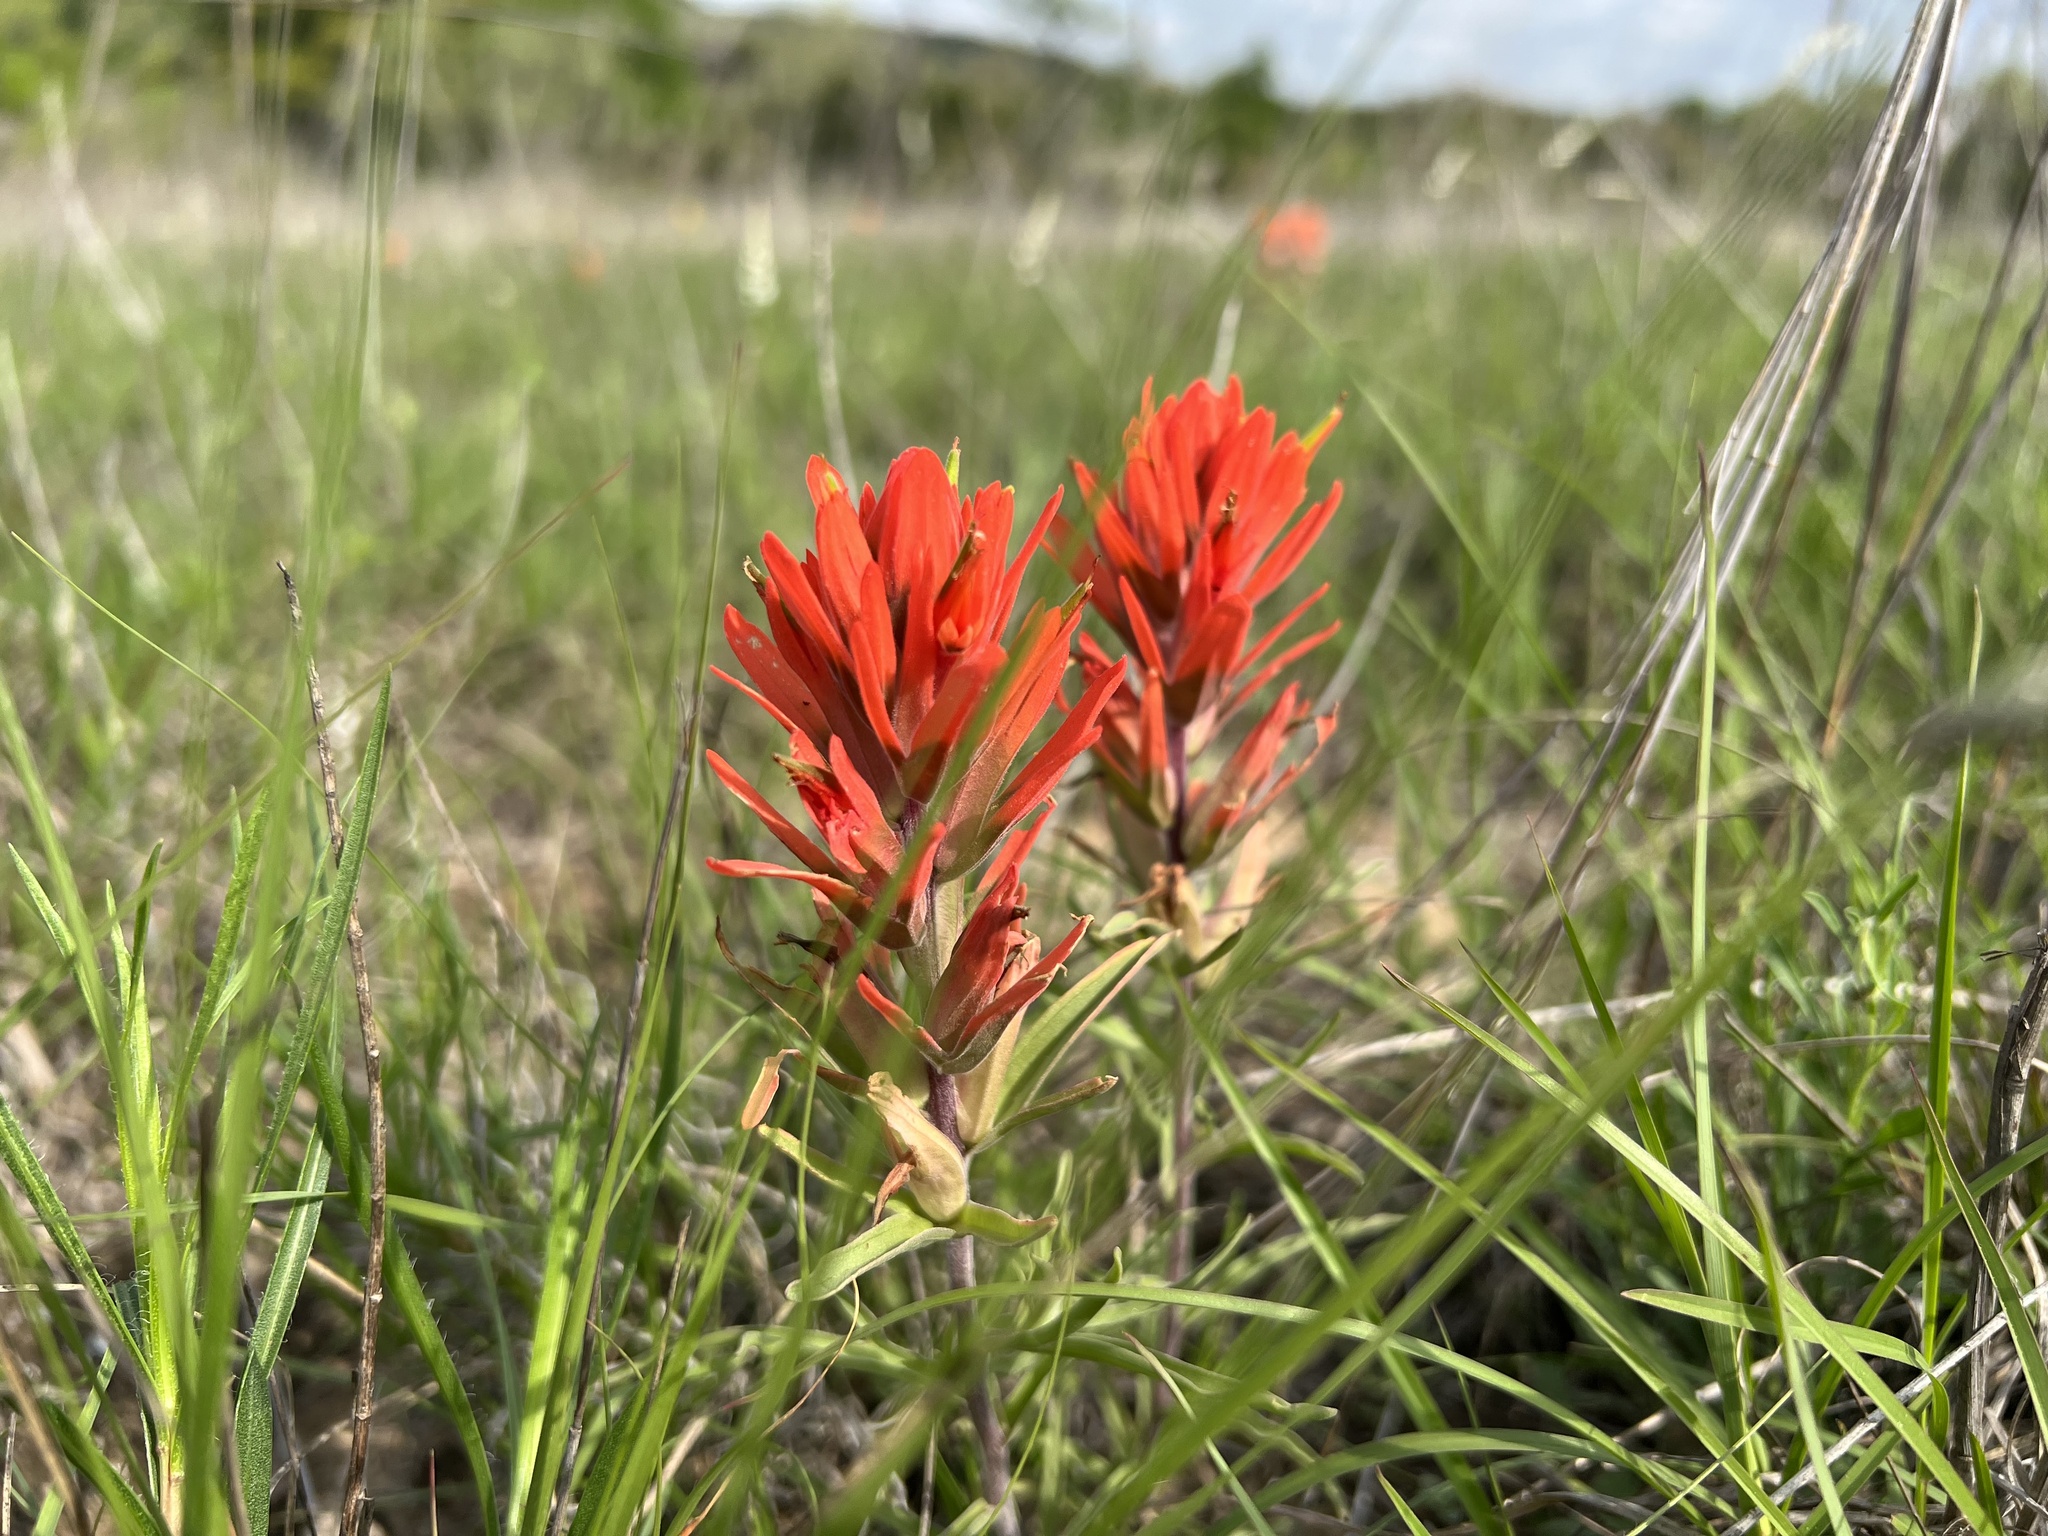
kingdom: Plantae
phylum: Tracheophyta
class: Magnoliopsida
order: Lamiales
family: Orobanchaceae
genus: Castilleja
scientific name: Castilleja lindheimeri
